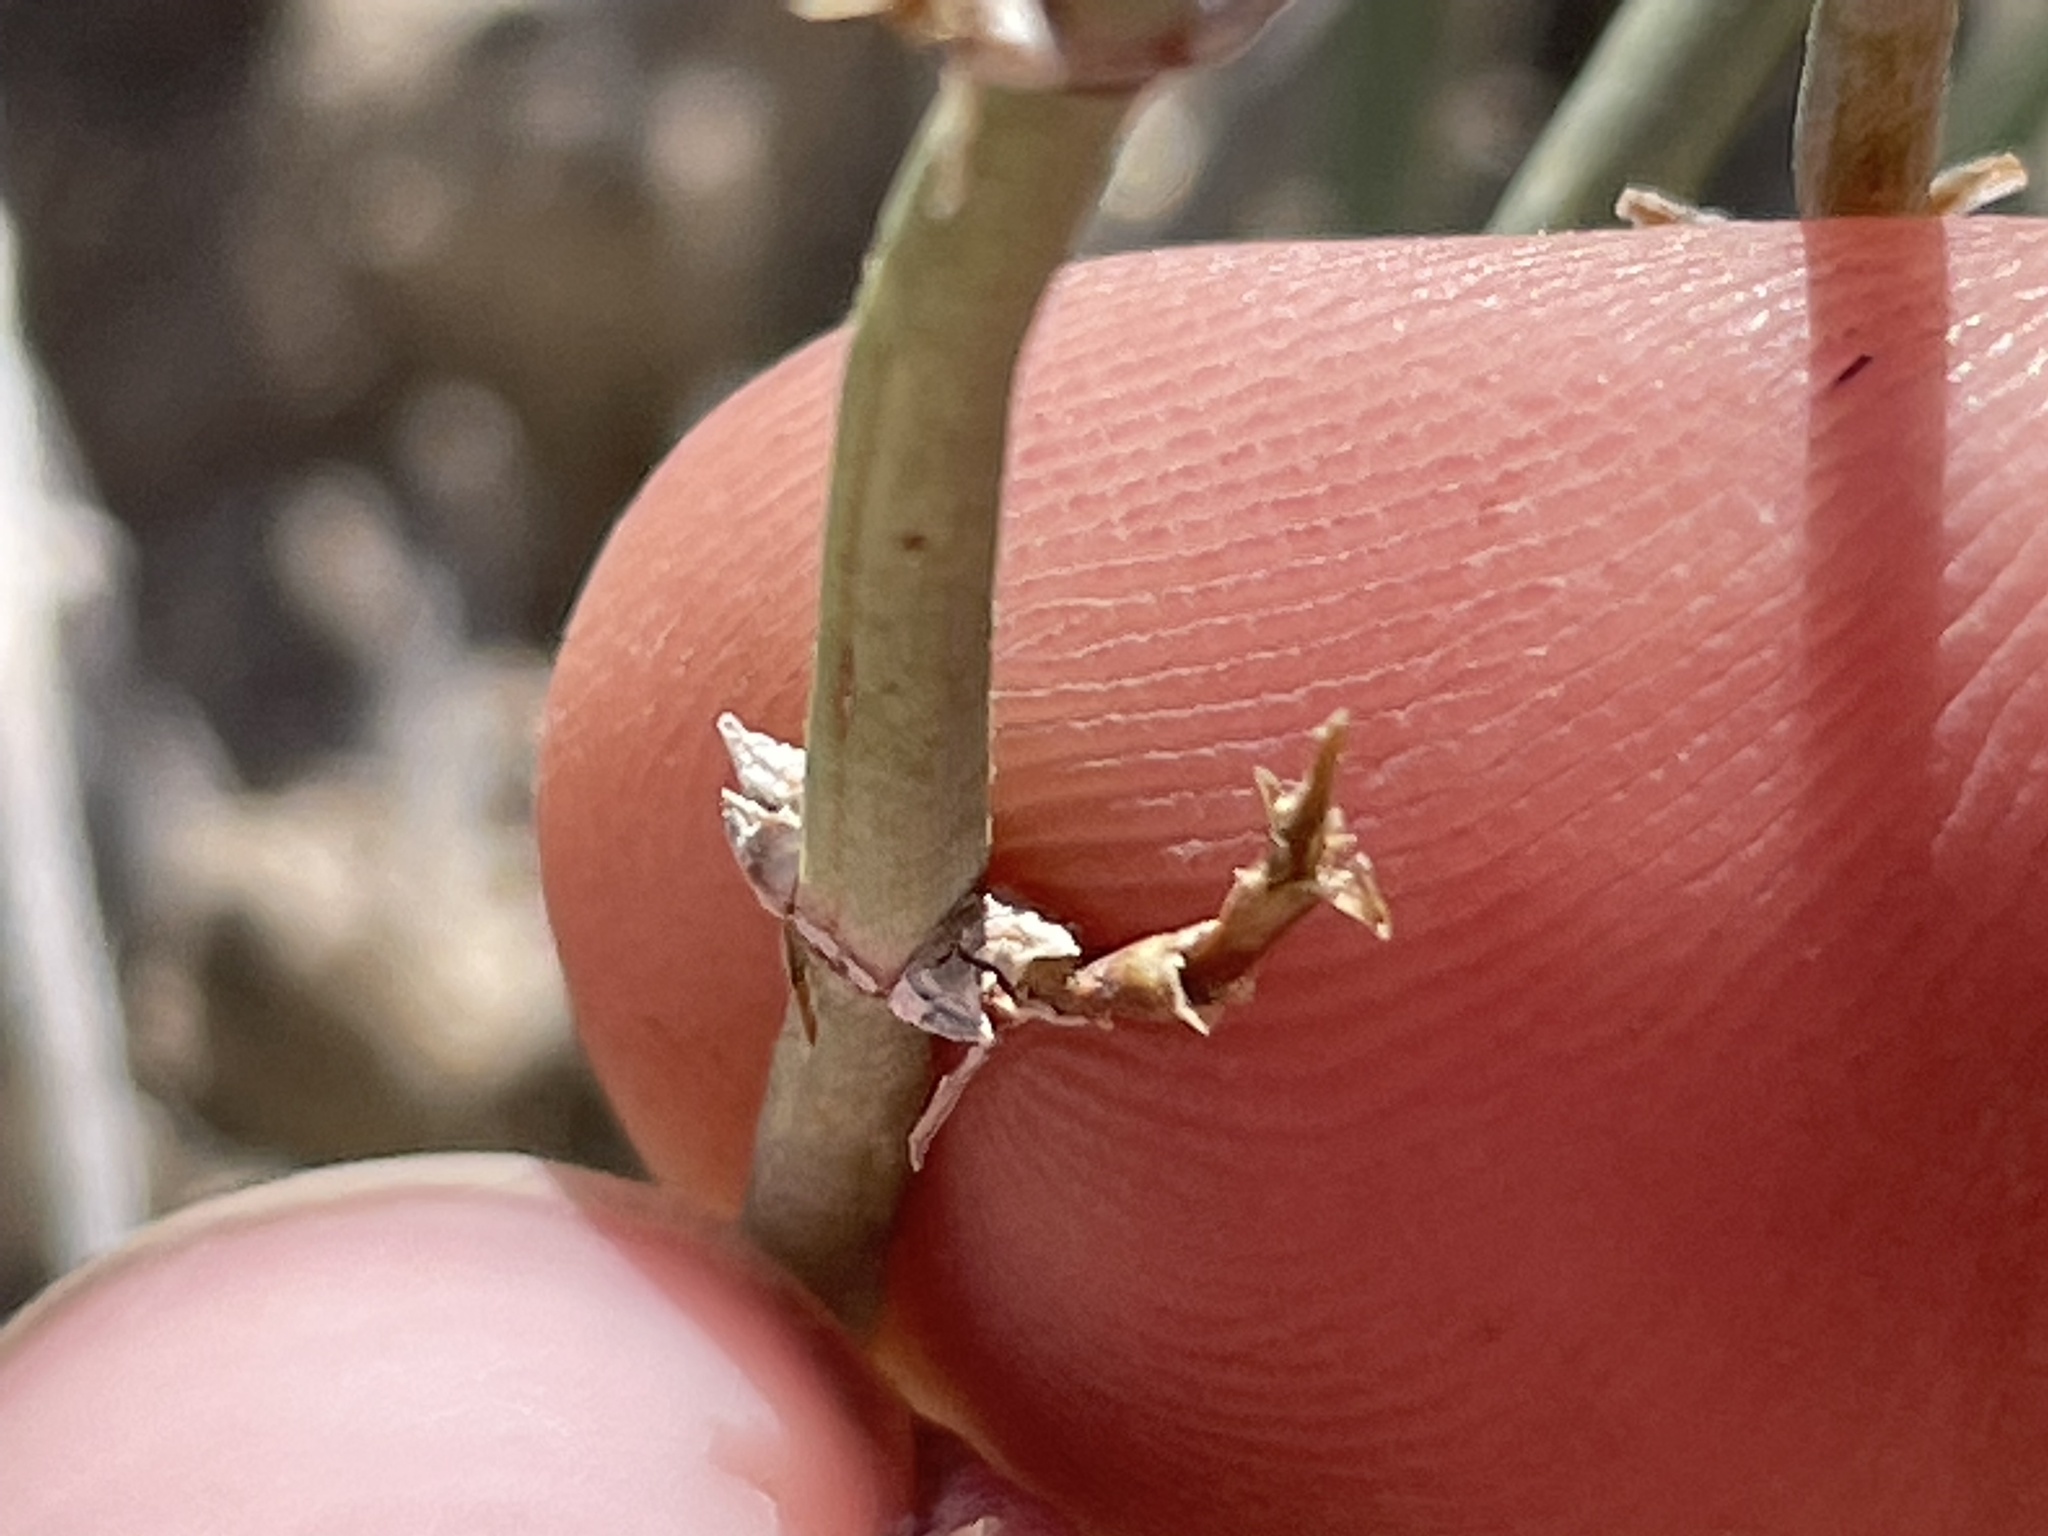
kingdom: Plantae
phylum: Tracheophyta
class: Gnetopsida
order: Ephedrales
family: Ephedraceae
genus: Ephedra
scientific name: Ephedra nevadensis
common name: Gray ephedra
